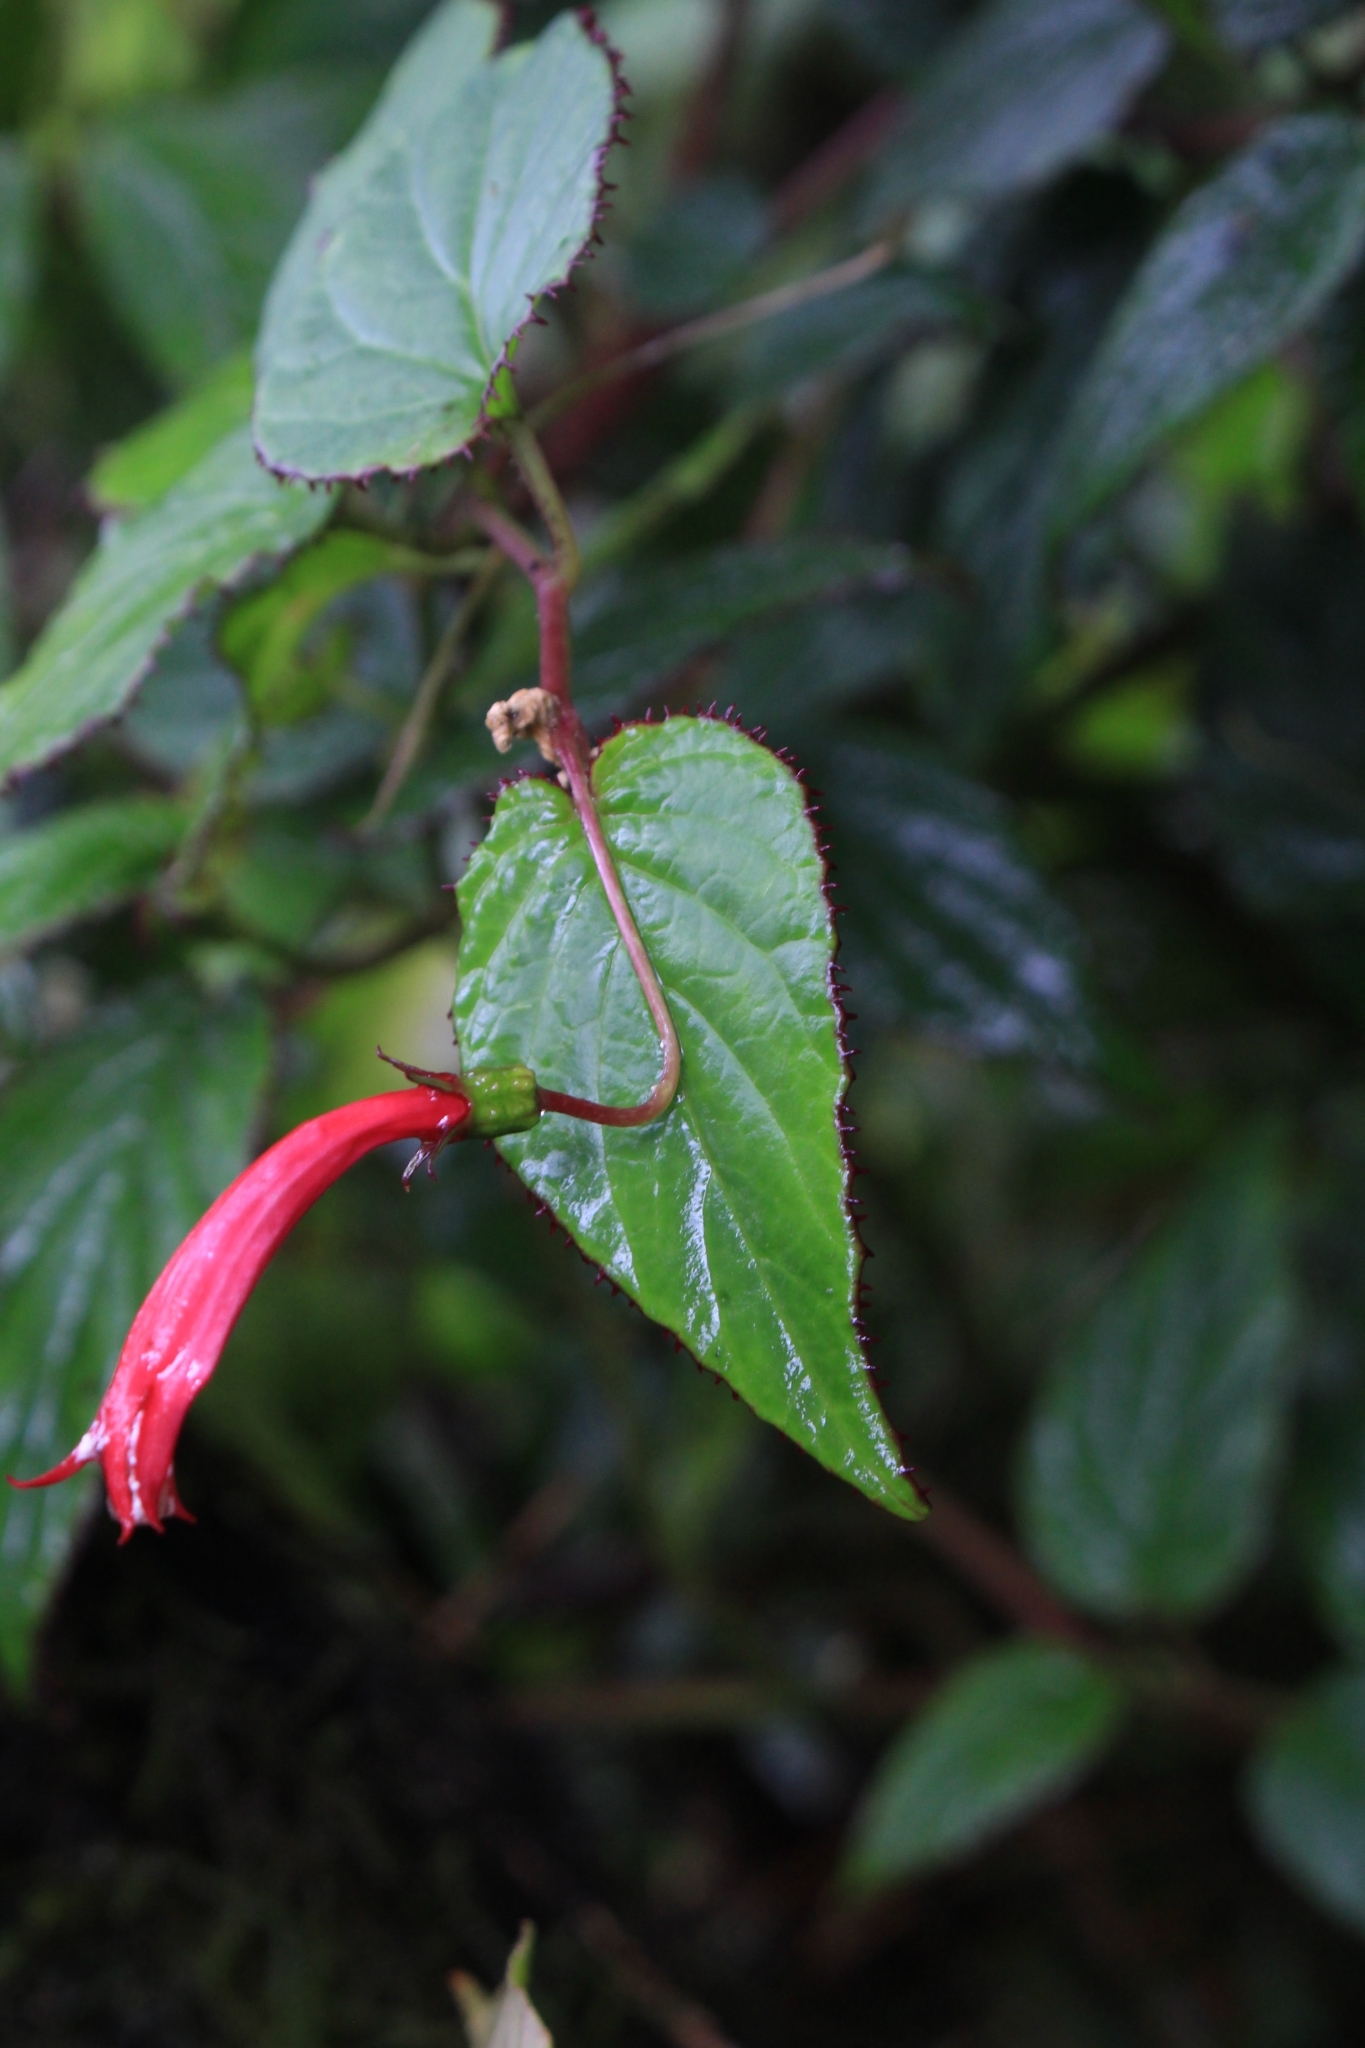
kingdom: Plantae
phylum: Tracheophyta
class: Magnoliopsida
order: Asterales
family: Campanulaceae
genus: Centropogon
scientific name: Centropogon costaricae
